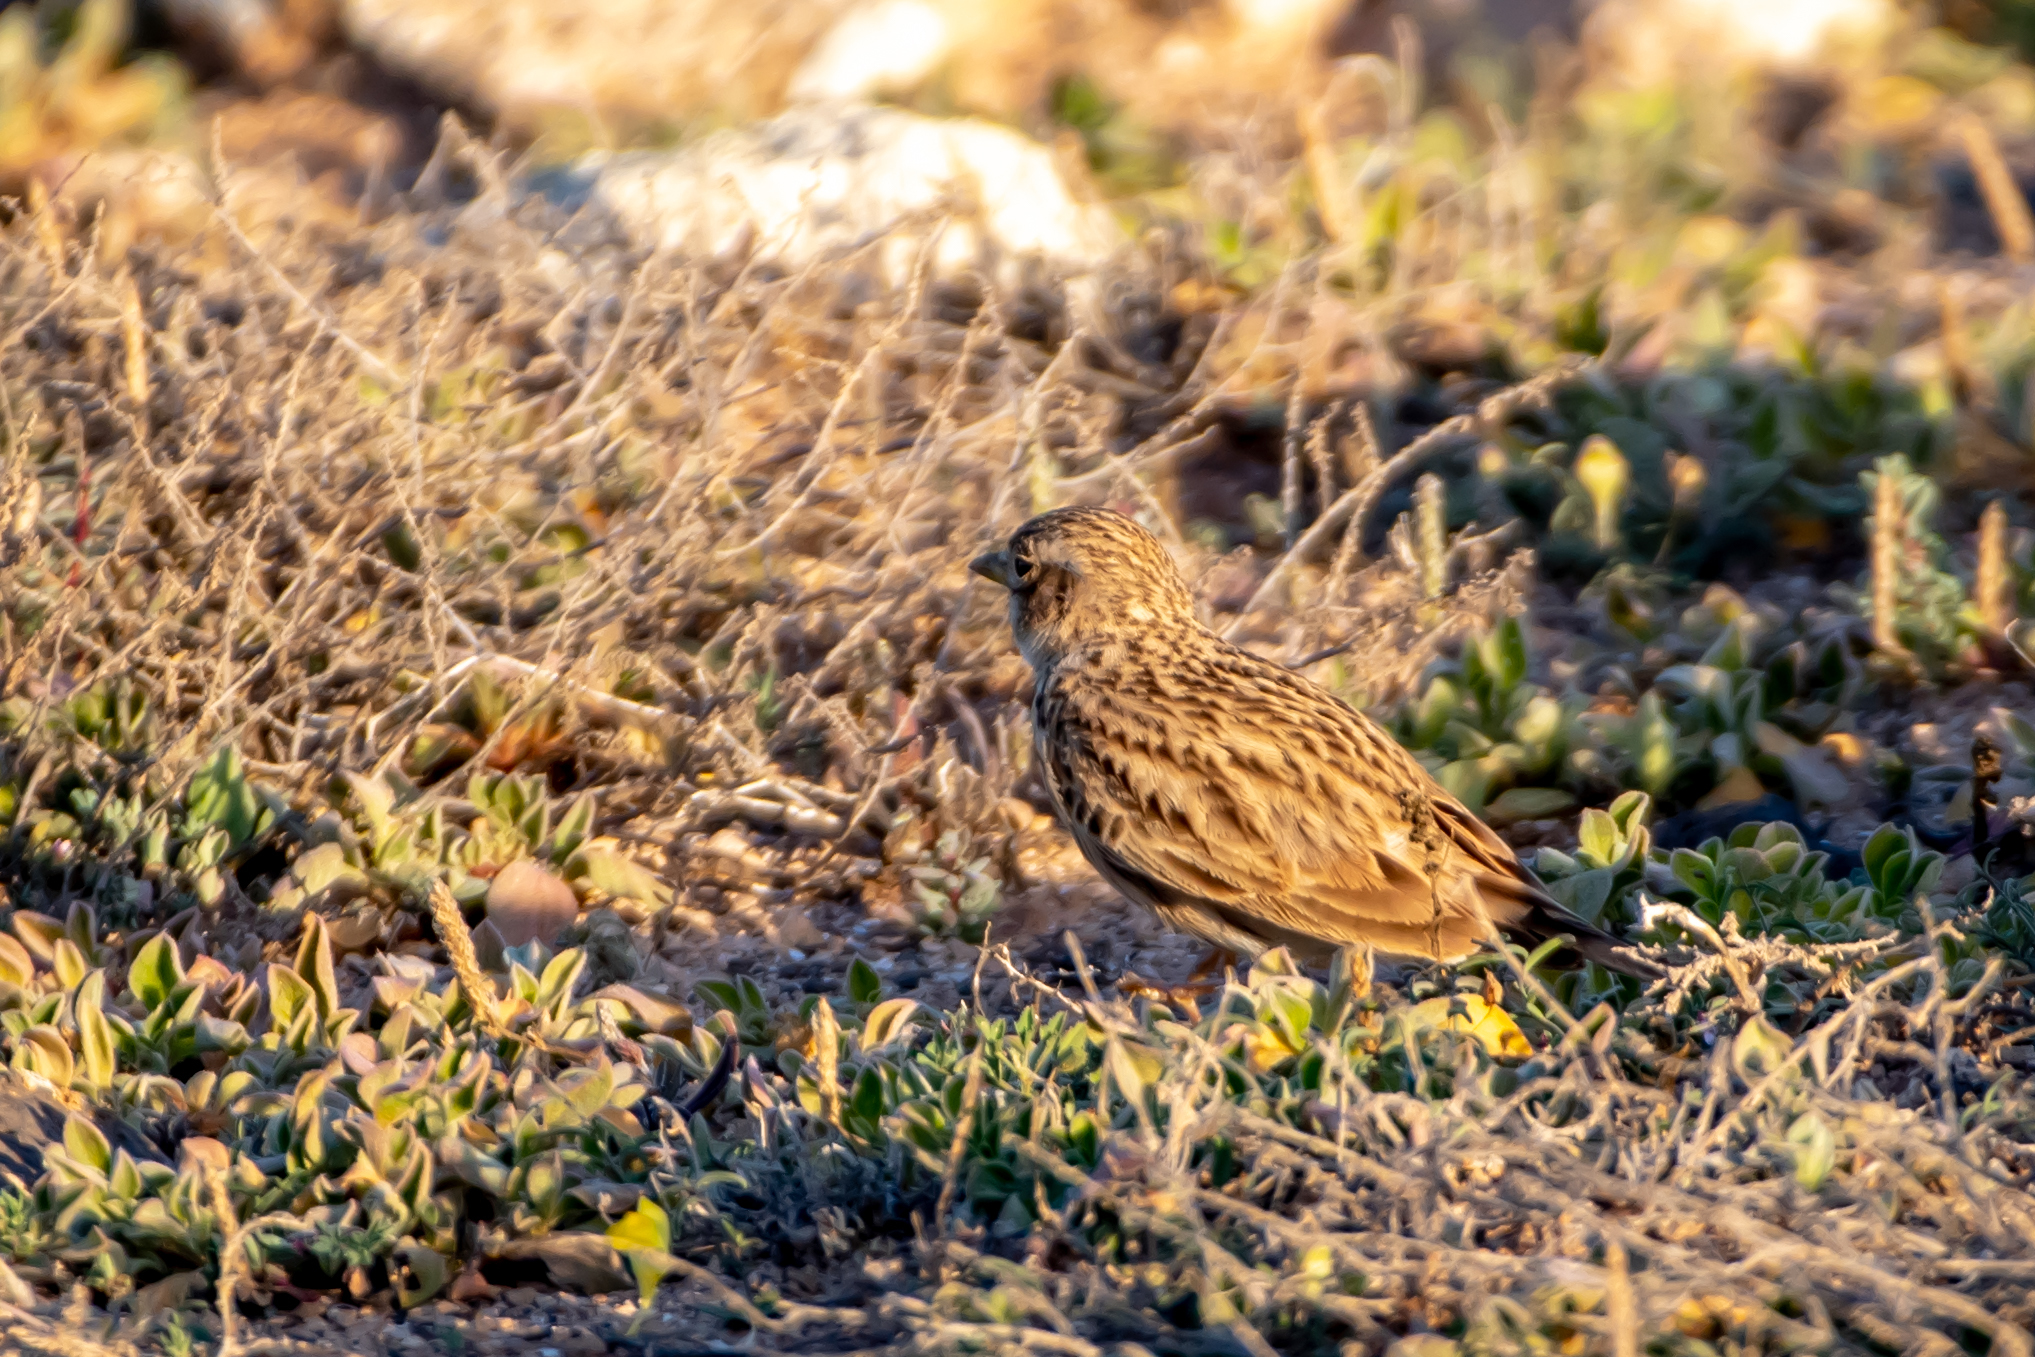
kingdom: Animalia
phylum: Chordata
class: Aves
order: Passeriformes
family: Alaudidae
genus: Calandrella
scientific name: Calandrella rufescens
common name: Lesser short-toed lark
